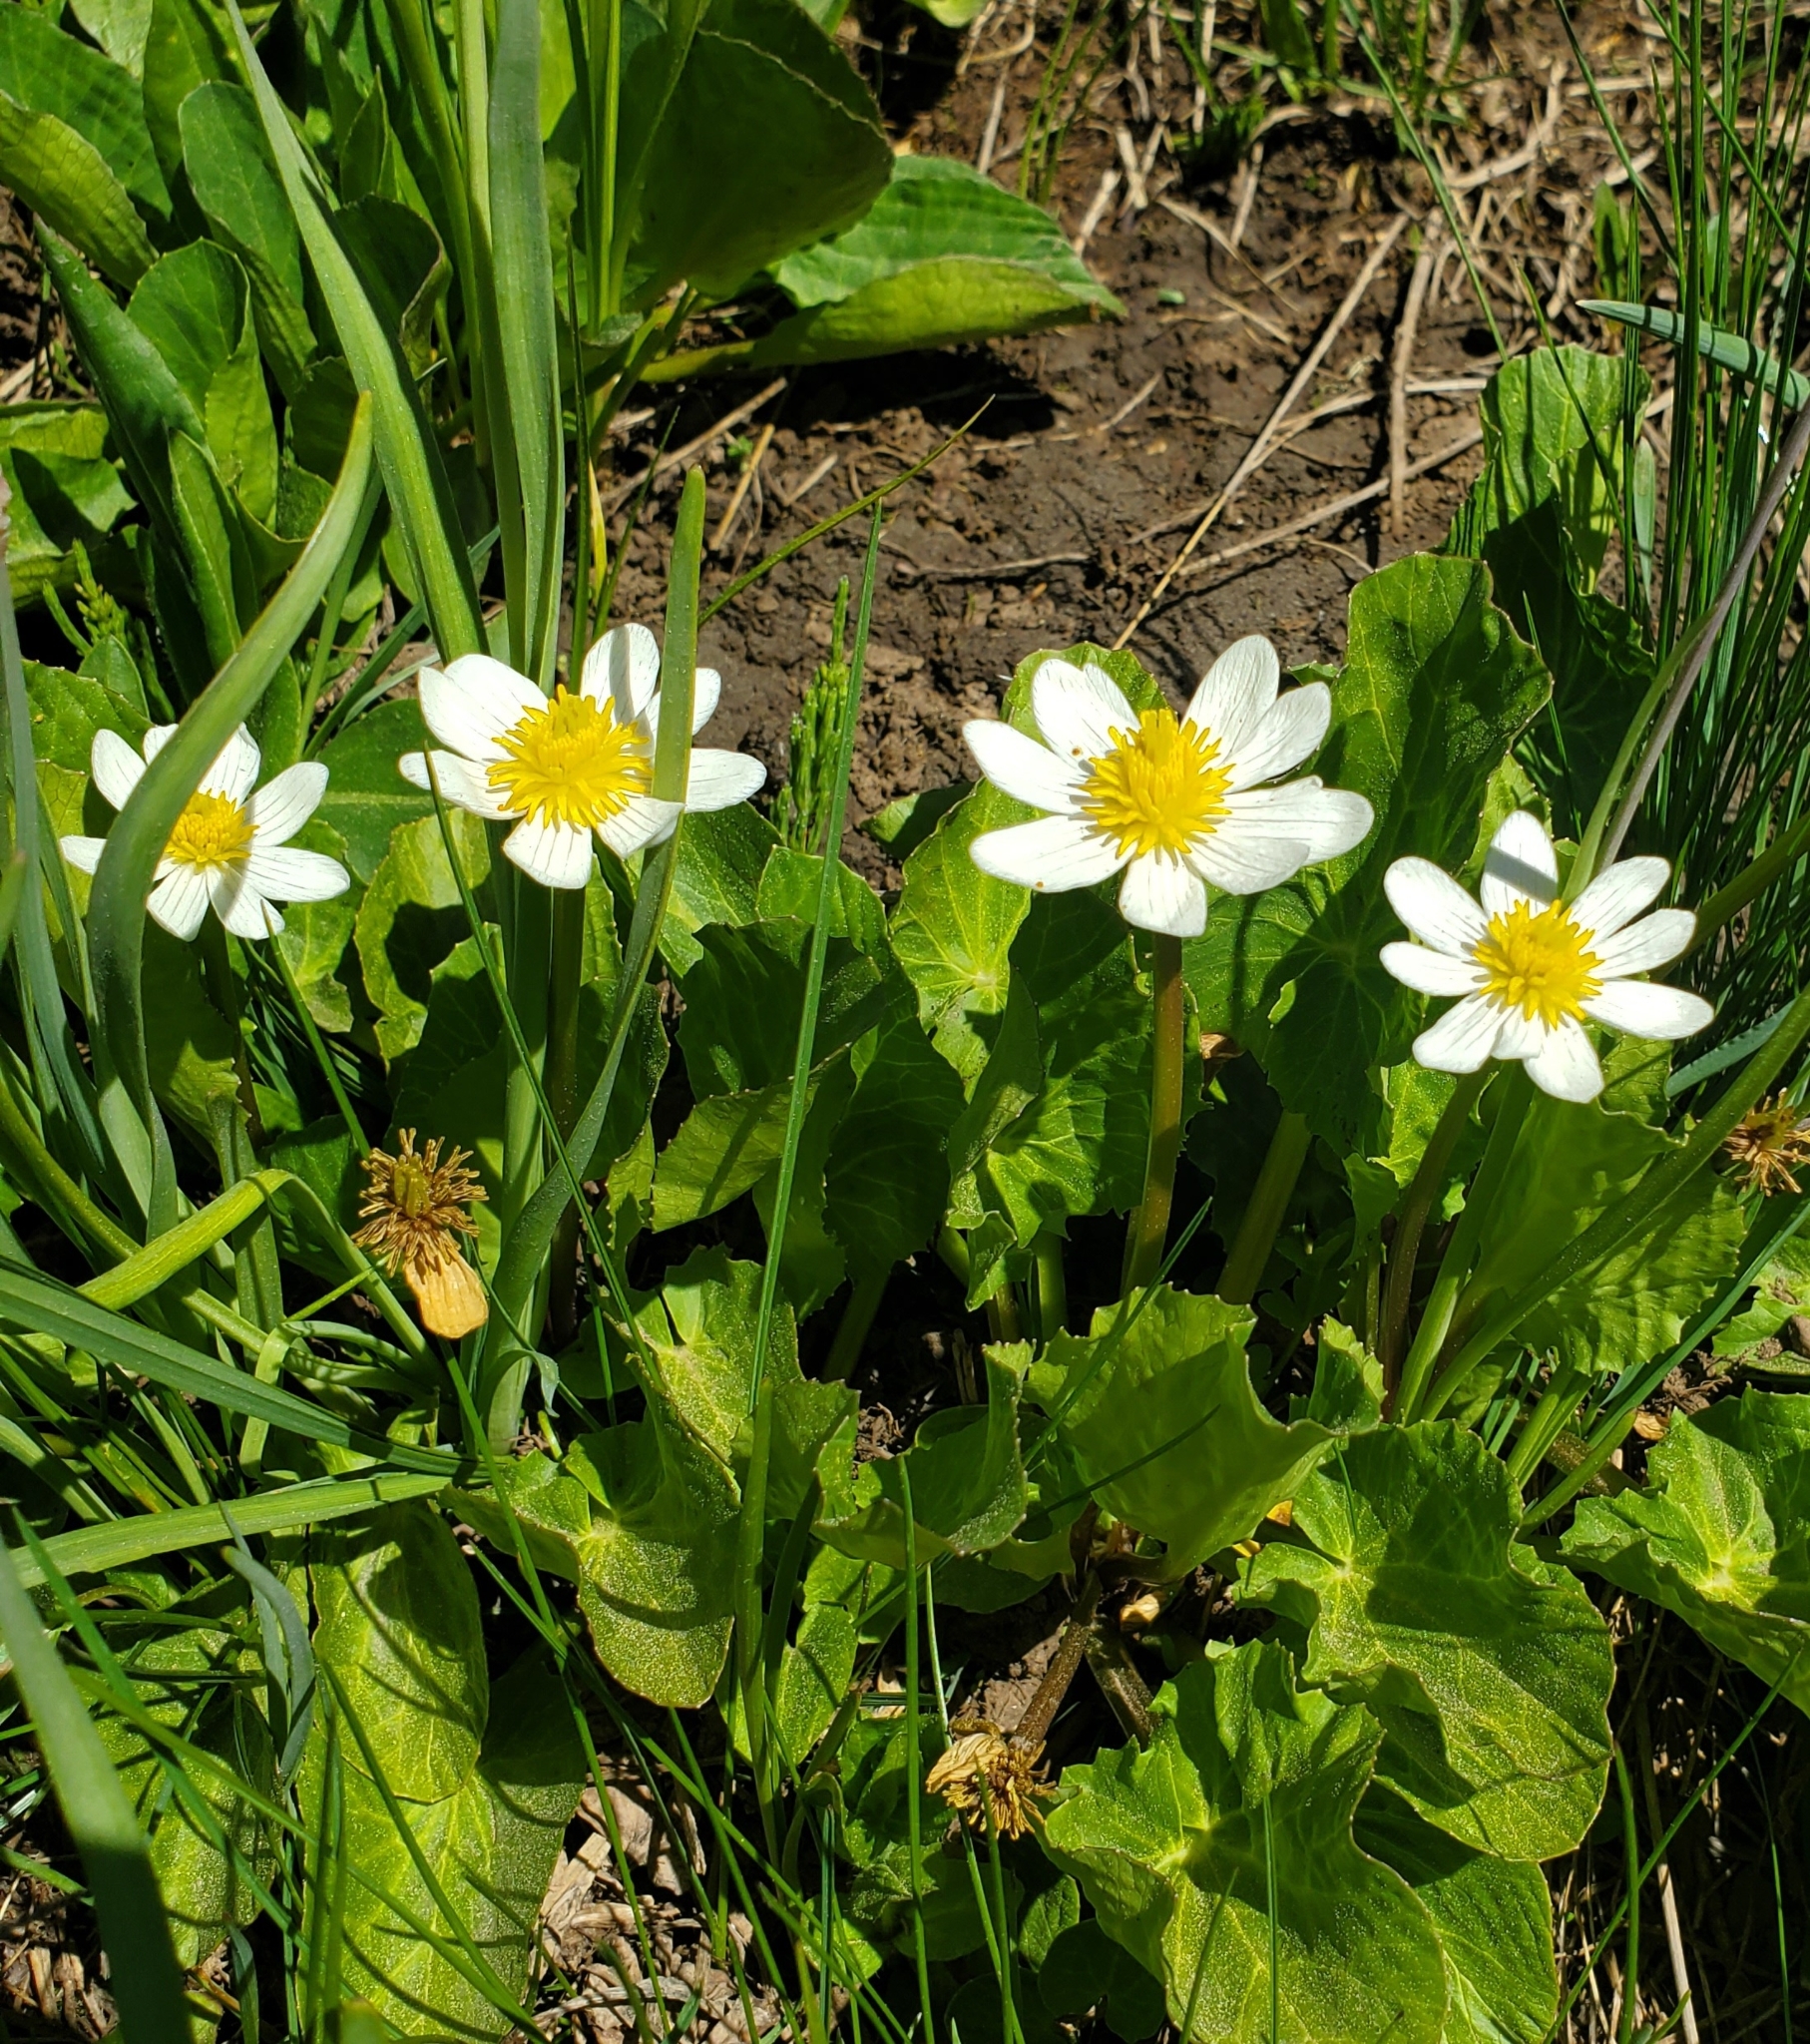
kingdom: Plantae
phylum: Tracheophyta
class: Magnoliopsida
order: Ranunculales
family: Ranunculaceae
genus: Caltha
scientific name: Caltha leptosepala
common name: Elkslip
